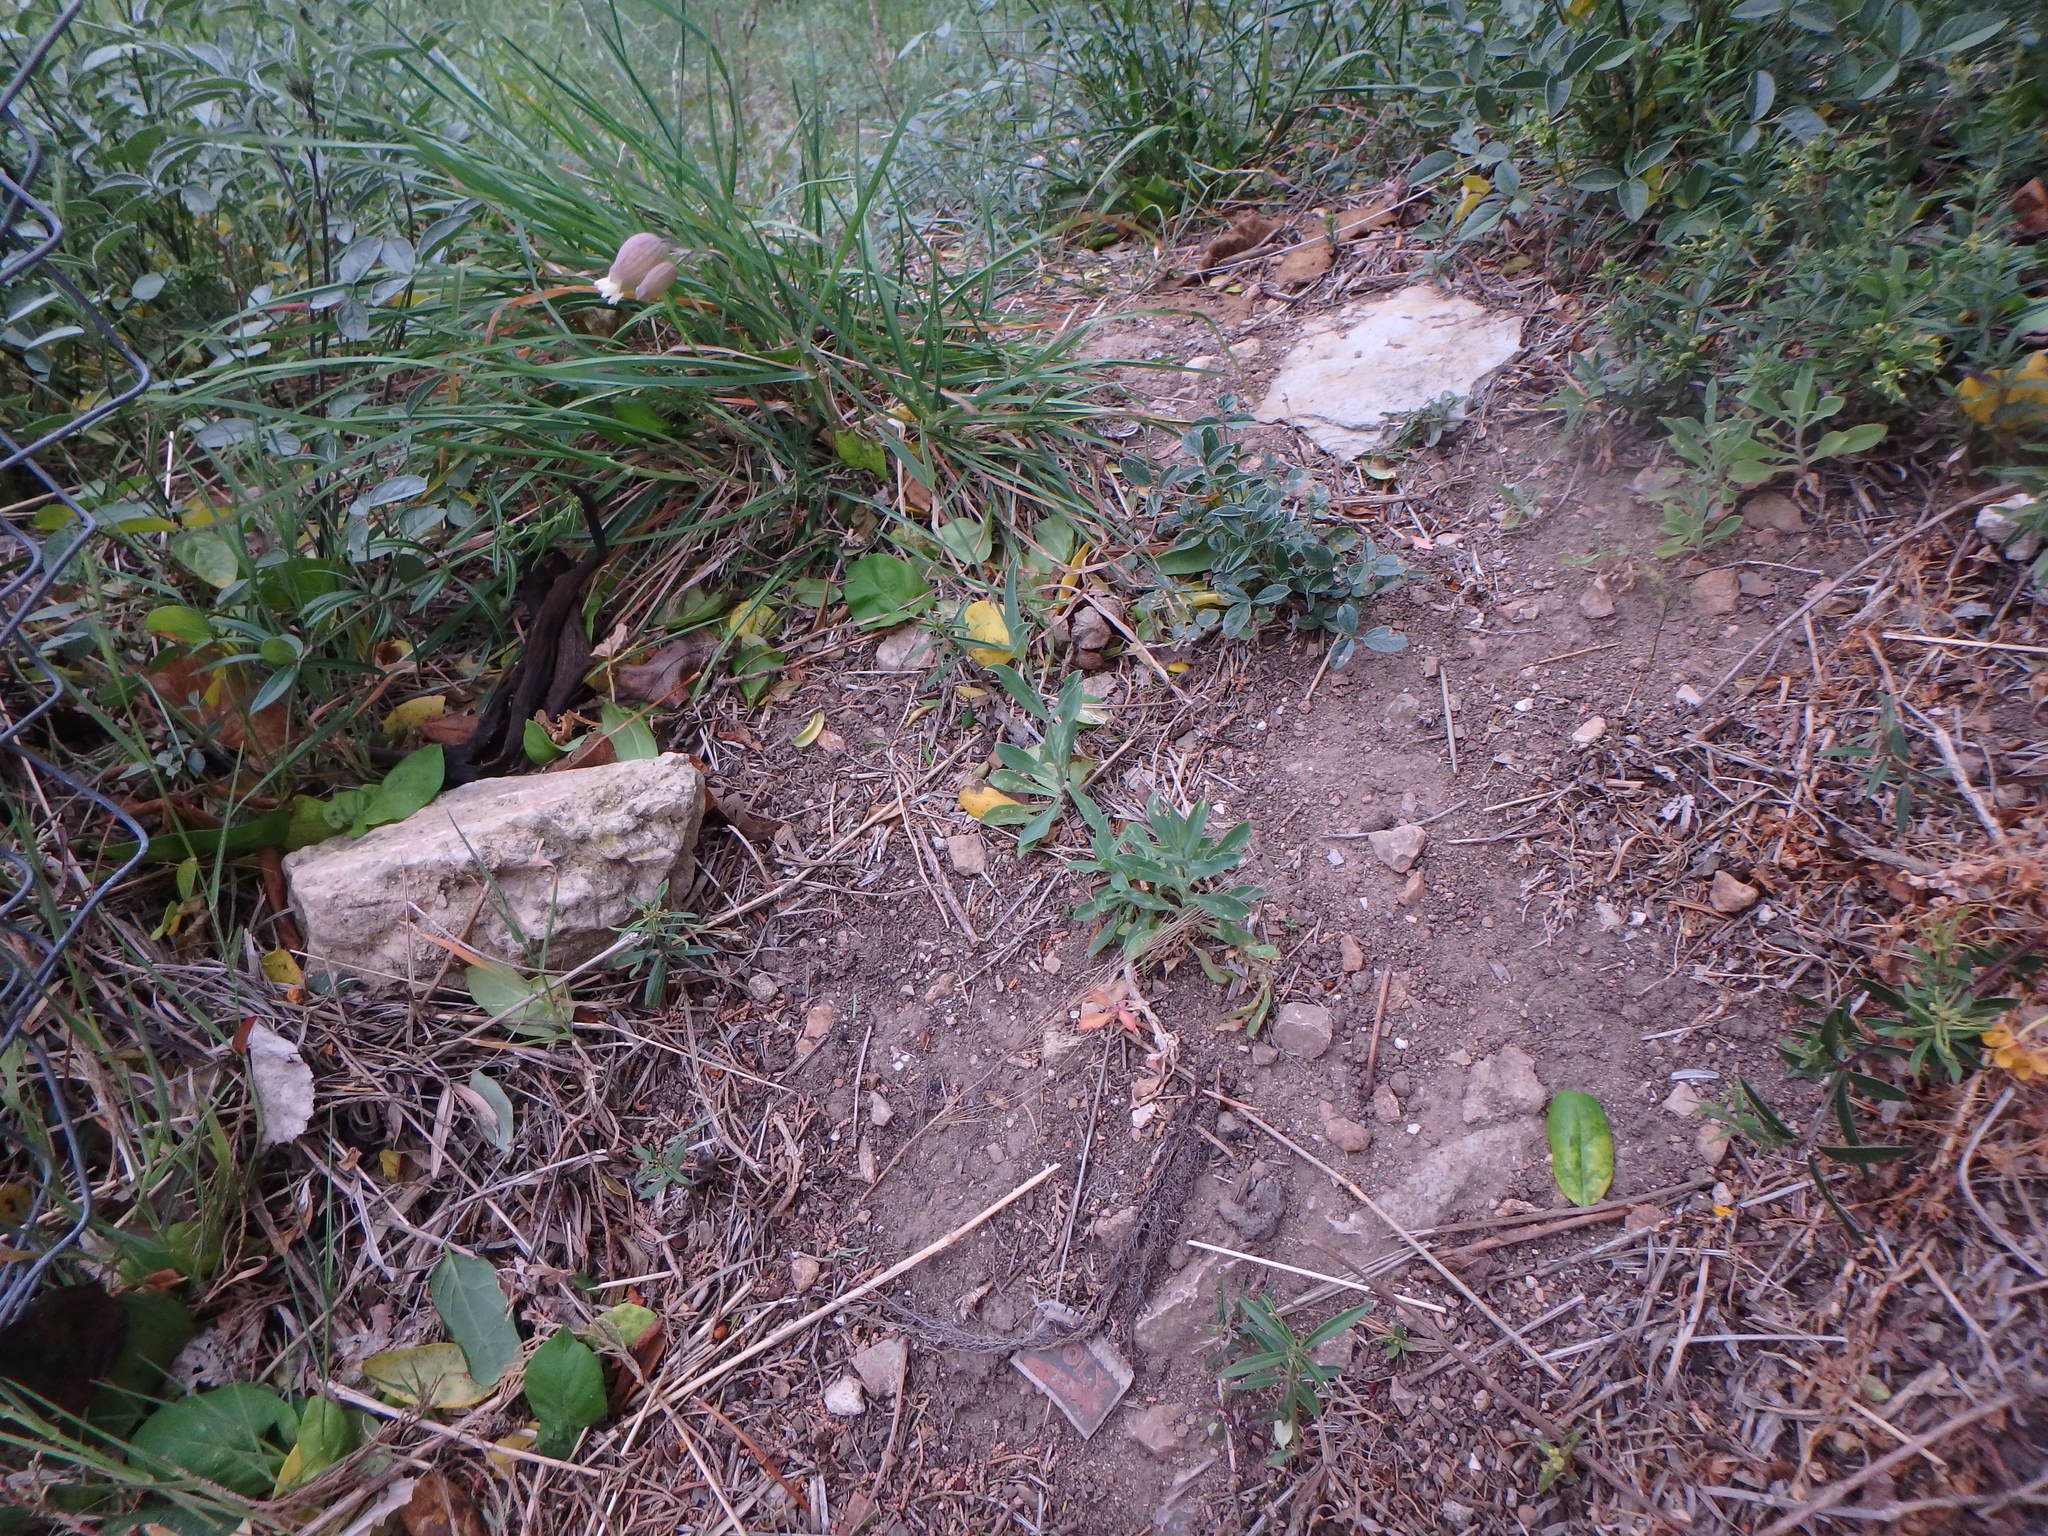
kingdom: Plantae
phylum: Tracheophyta
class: Magnoliopsida
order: Caryophyllales
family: Caryophyllaceae
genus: Silene
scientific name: Silene vulgaris
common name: Bladder campion
